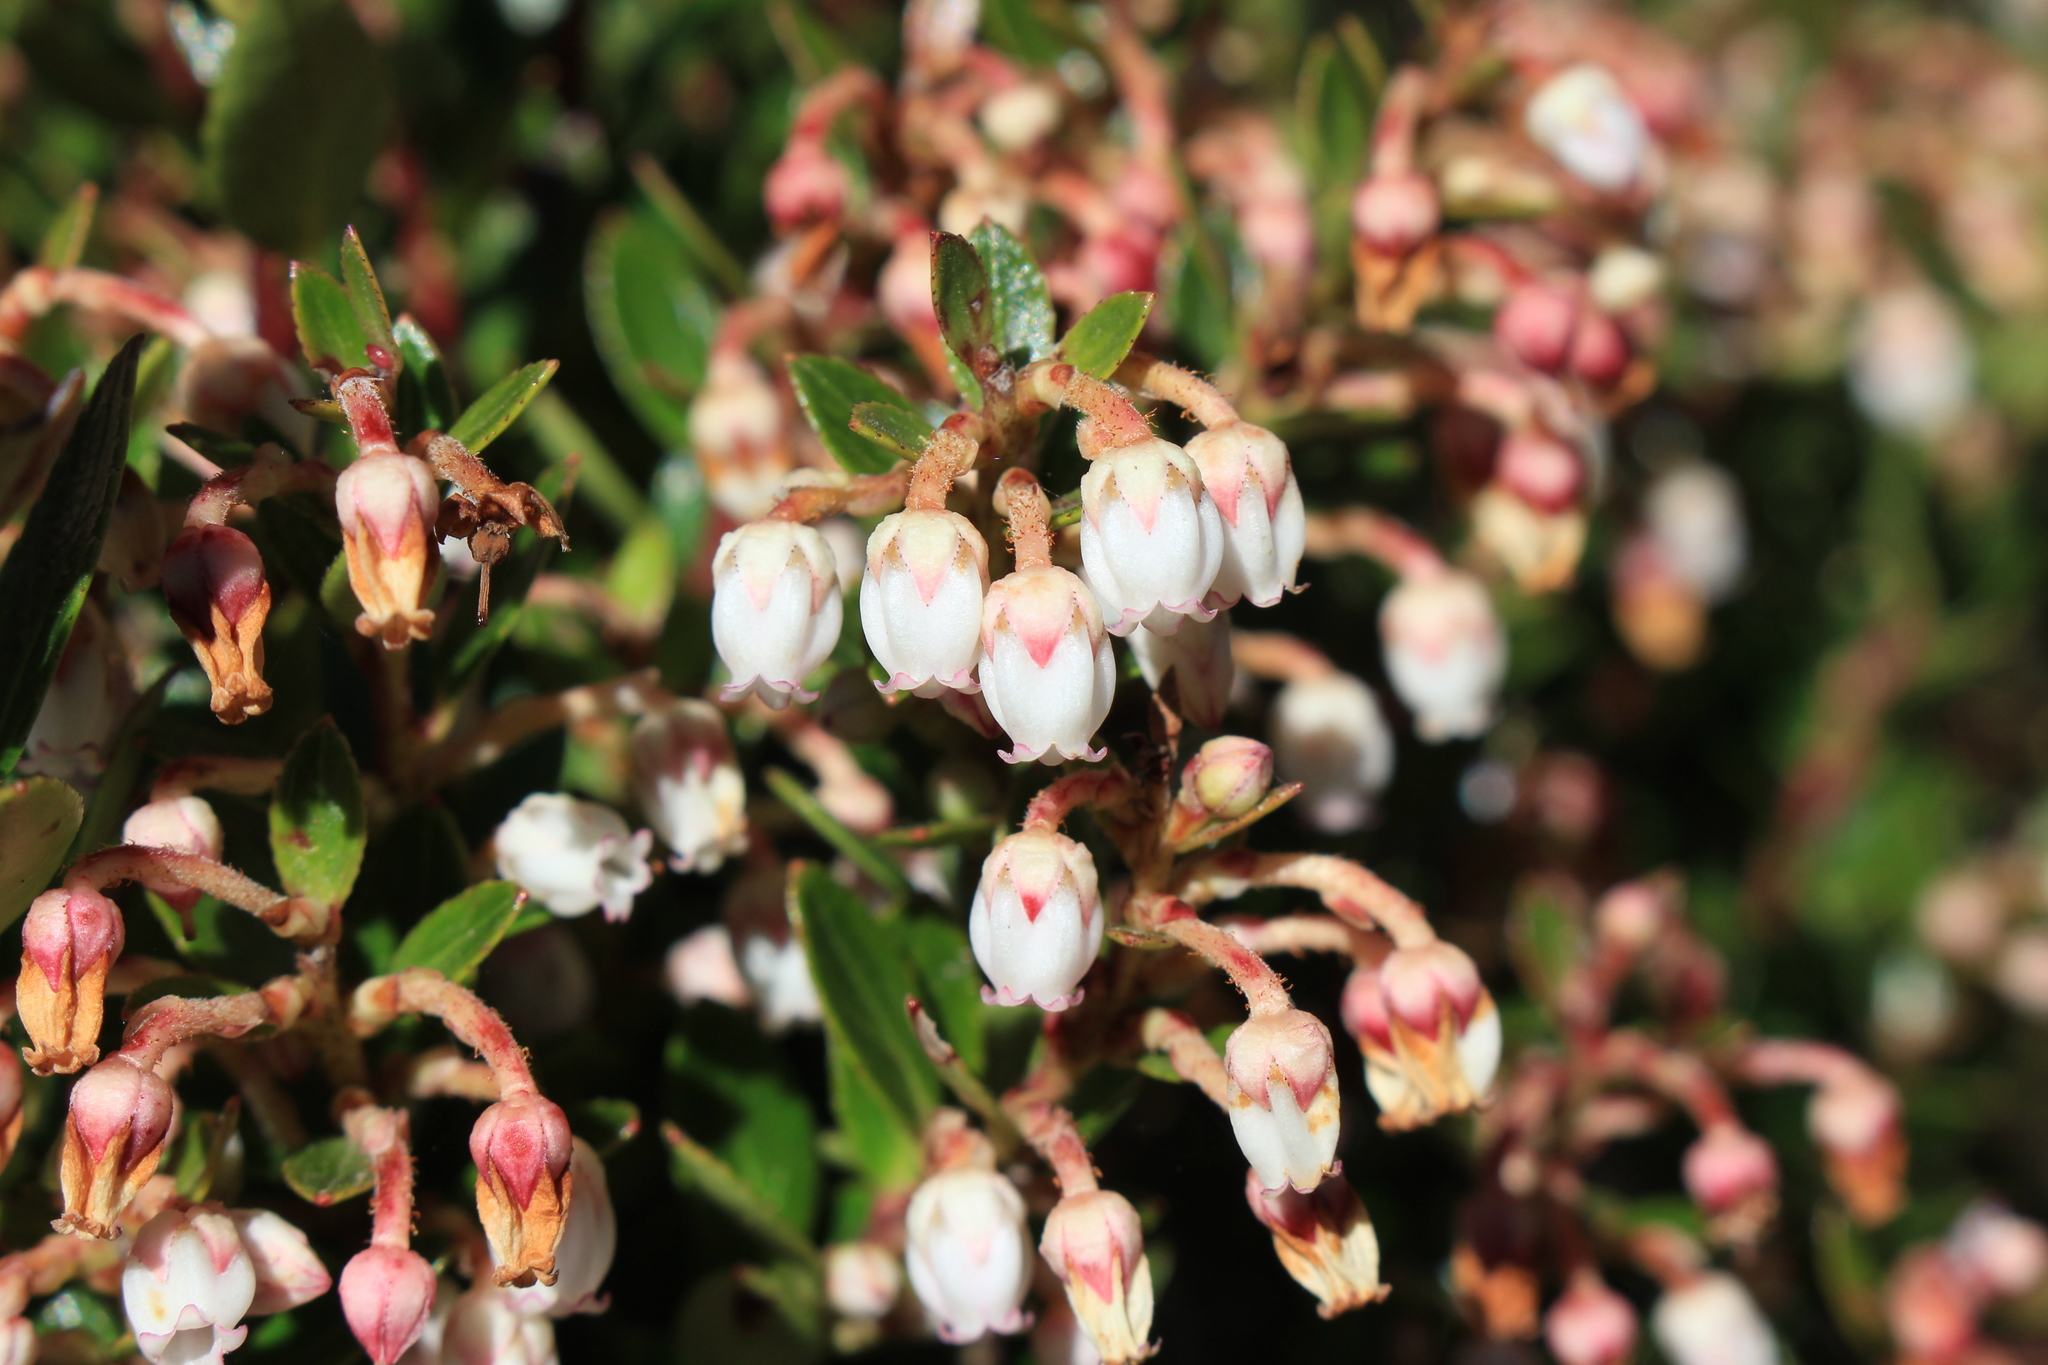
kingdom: Plantae
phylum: Tracheophyta
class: Magnoliopsida
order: Ericales
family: Ericaceae
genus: Gaultheria
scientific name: Gaultheria myrsinoides
